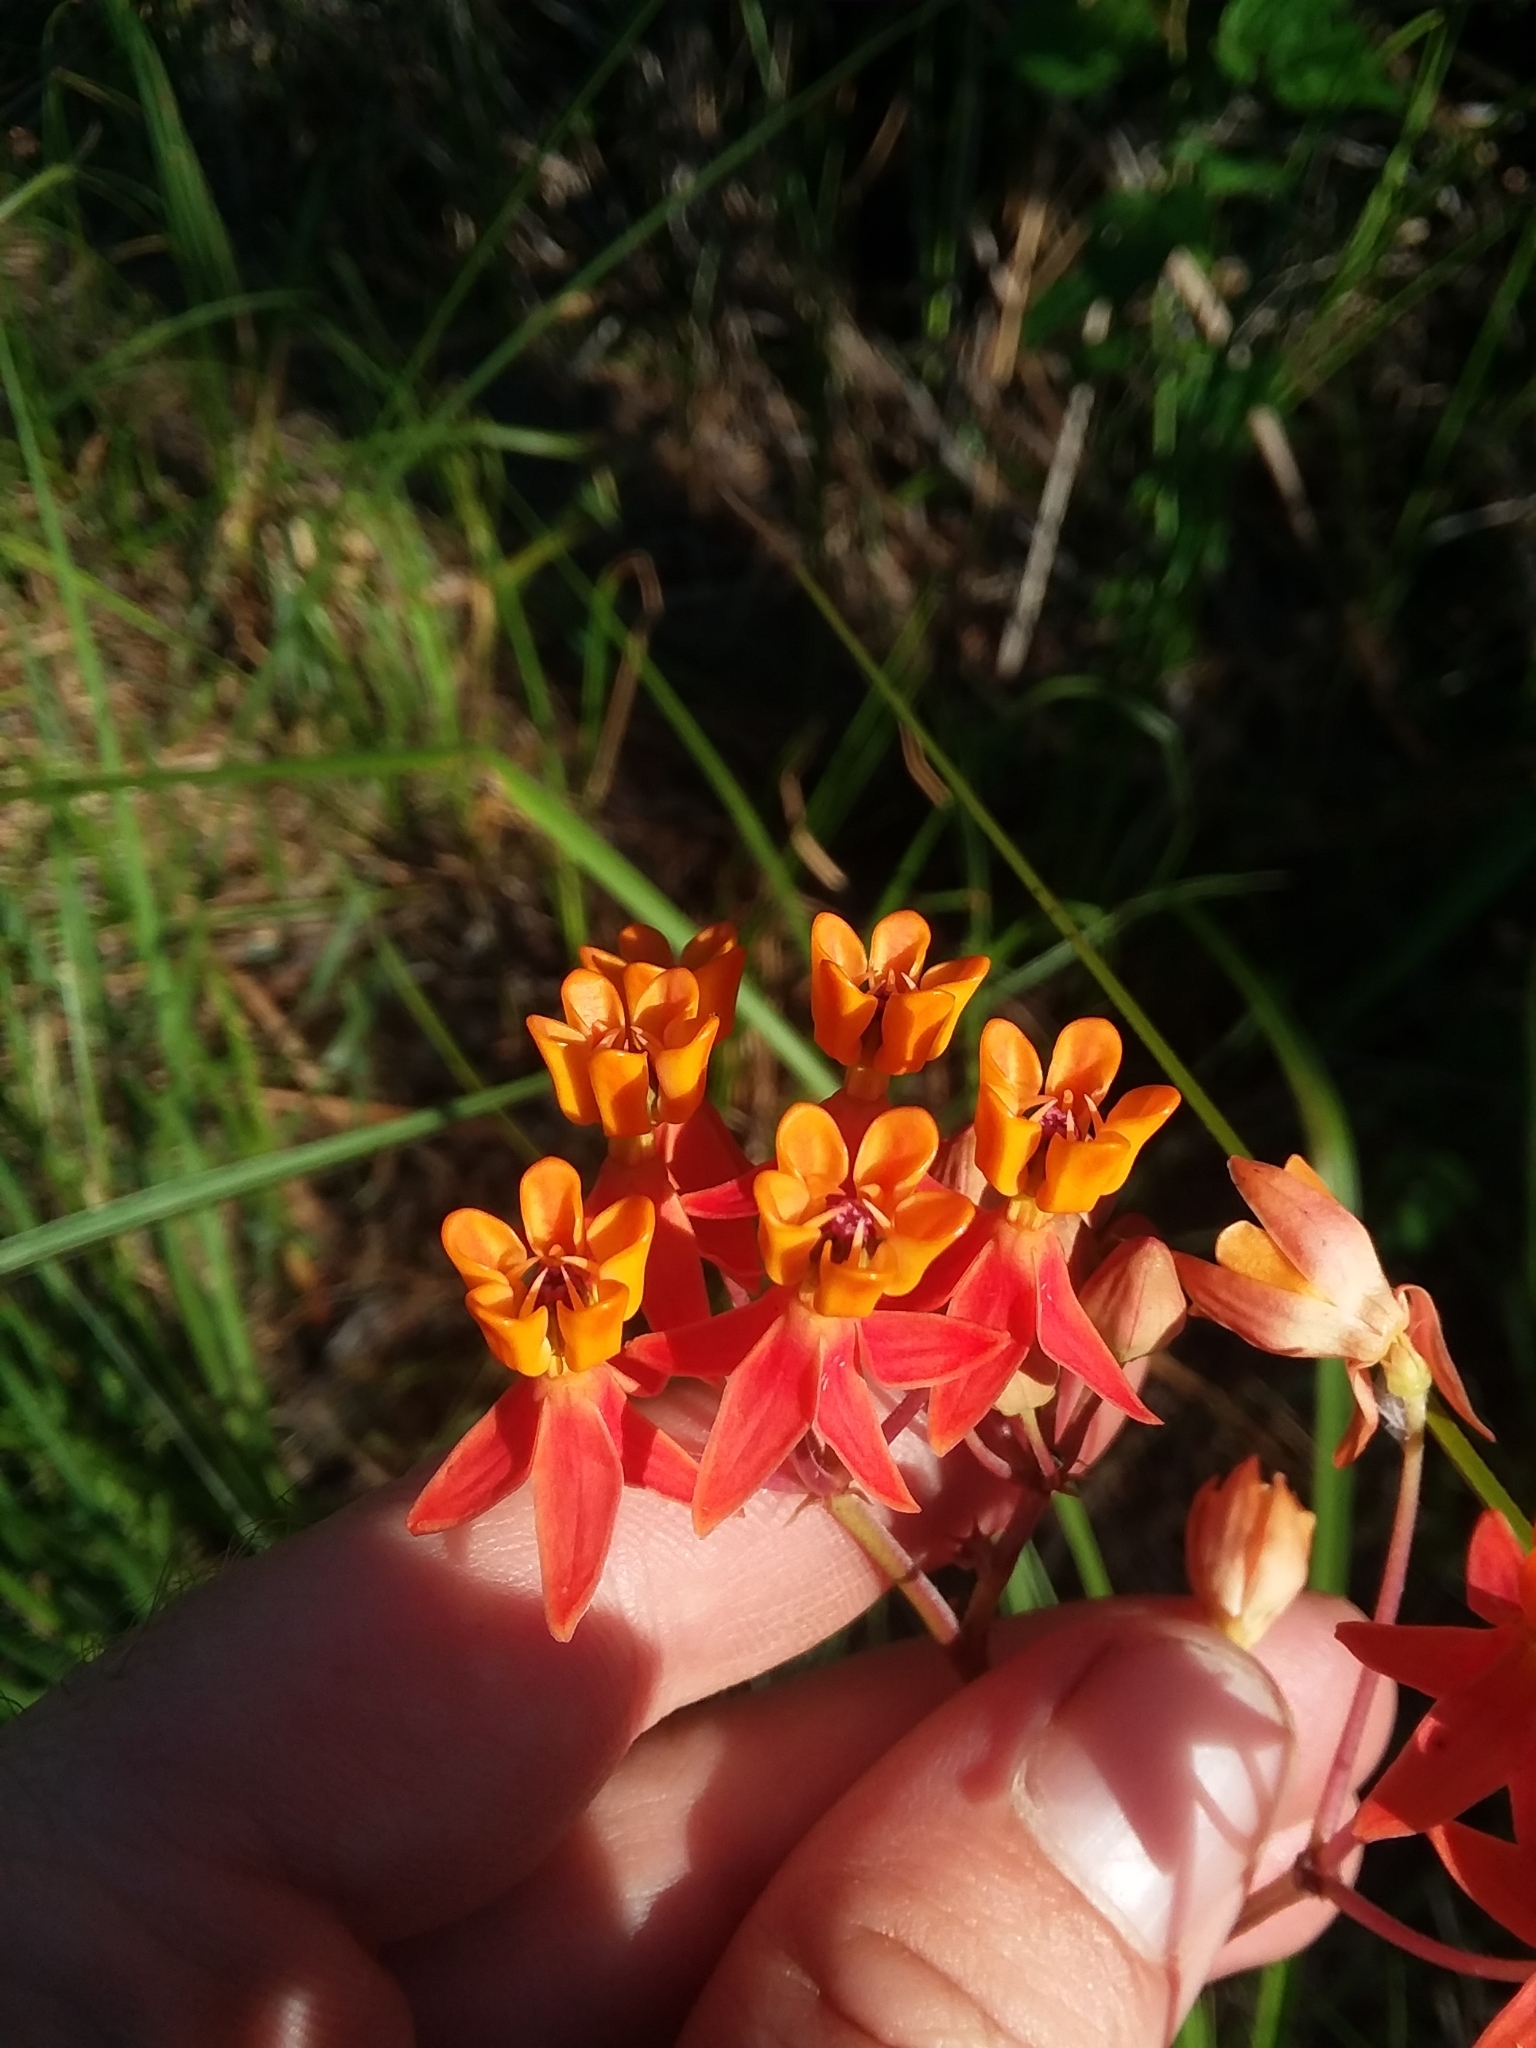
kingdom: Plantae
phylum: Tracheophyta
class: Magnoliopsida
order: Gentianales
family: Apocynaceae
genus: Asclepias
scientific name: Asclepias lanceolata
